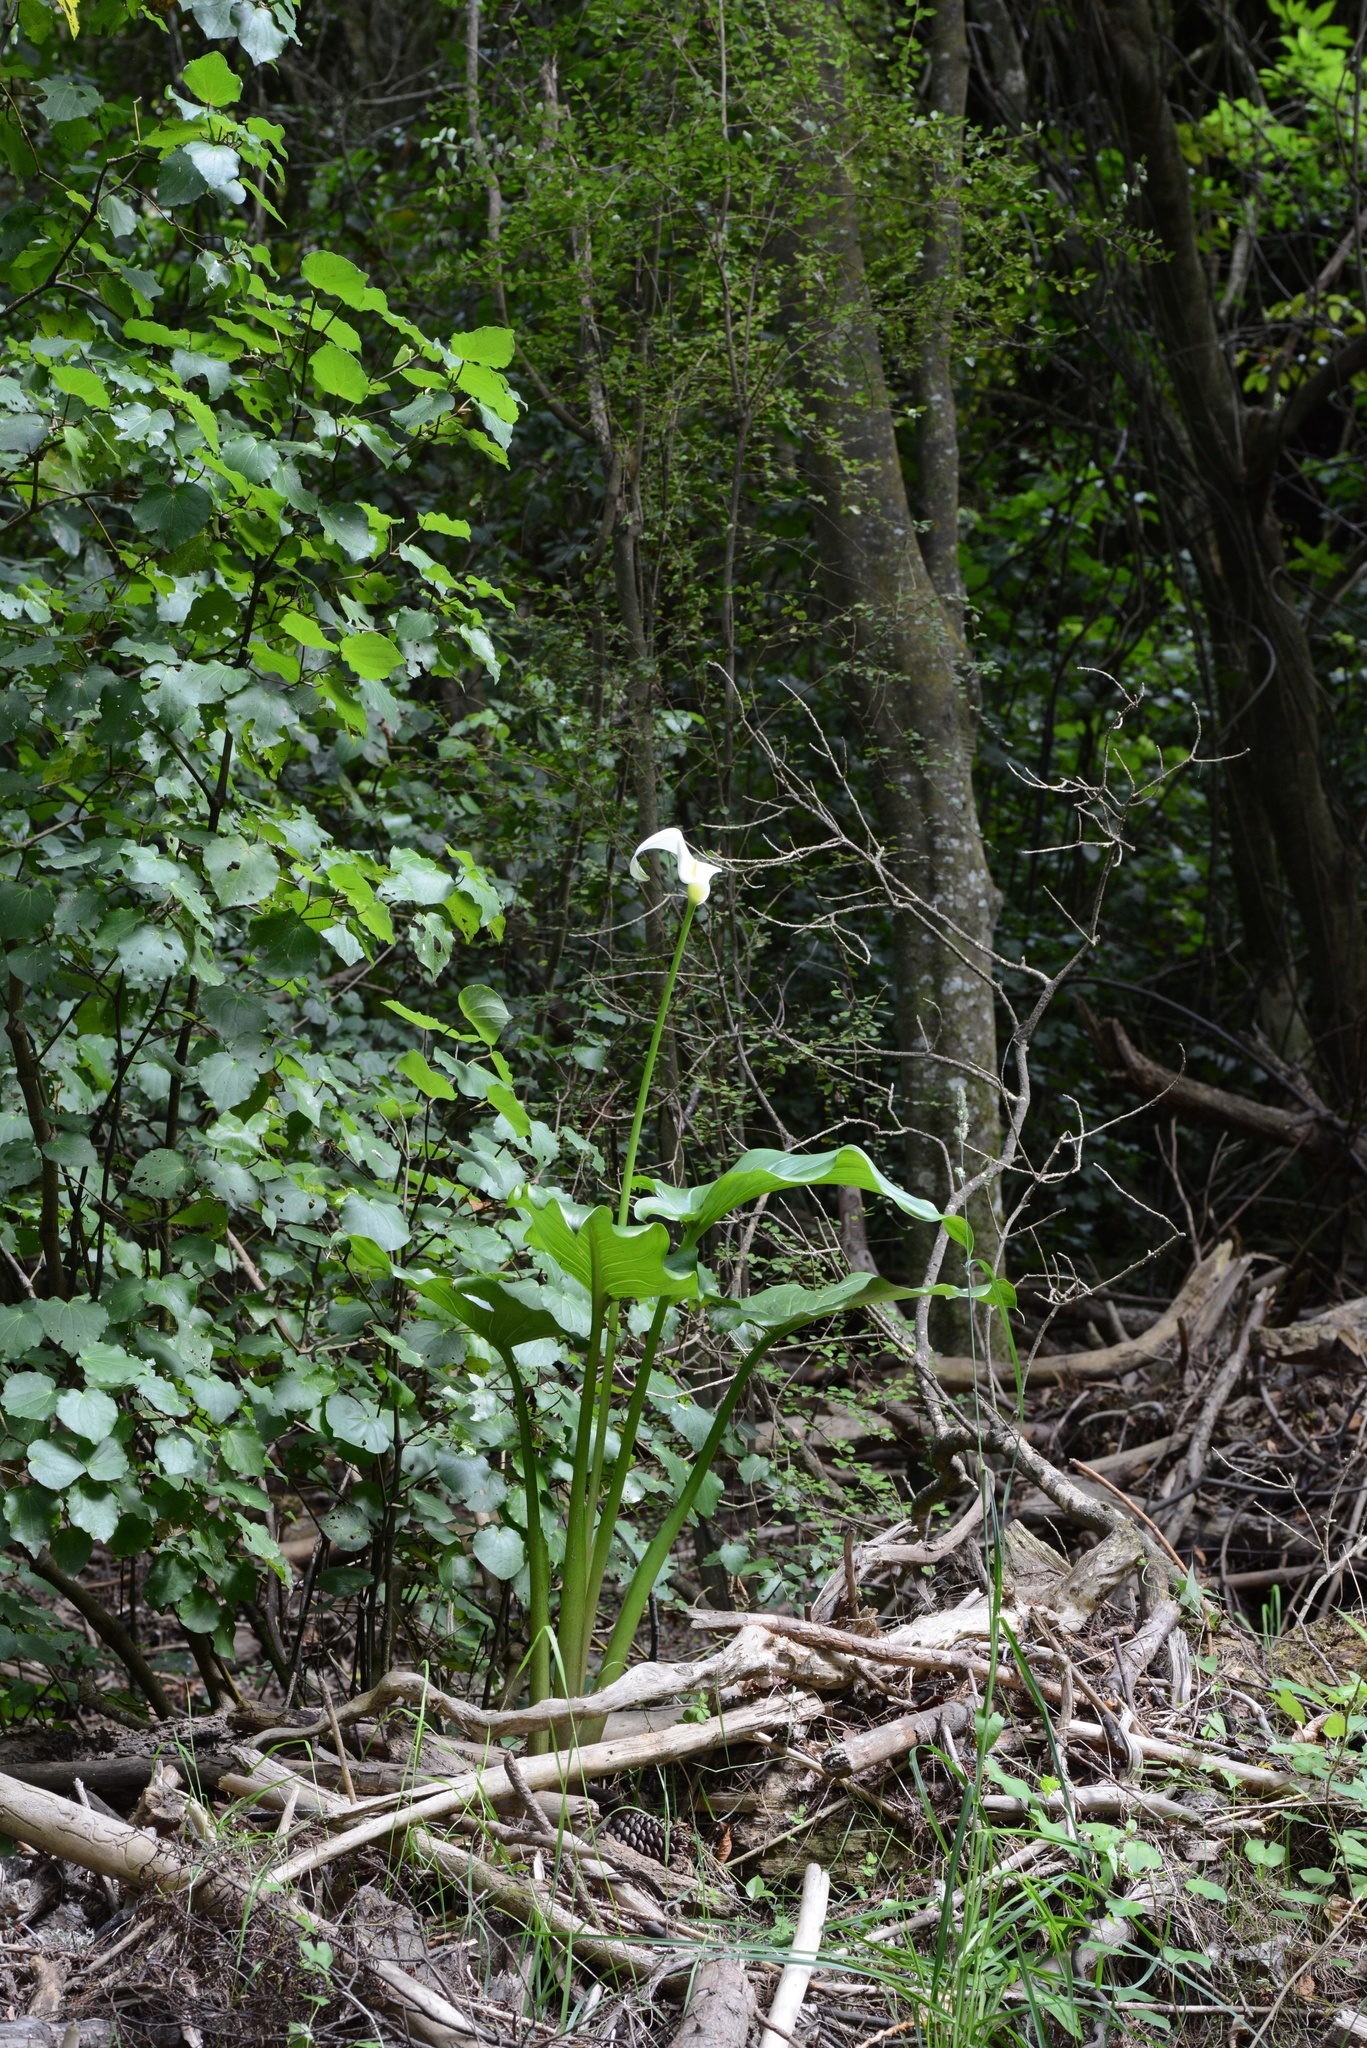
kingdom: Plantae
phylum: Tracheophyta
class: Liliopsida
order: Alismatales
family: Araceae
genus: Zantedeschia
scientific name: Zantedeschia aethiopica
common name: Altar-lily
